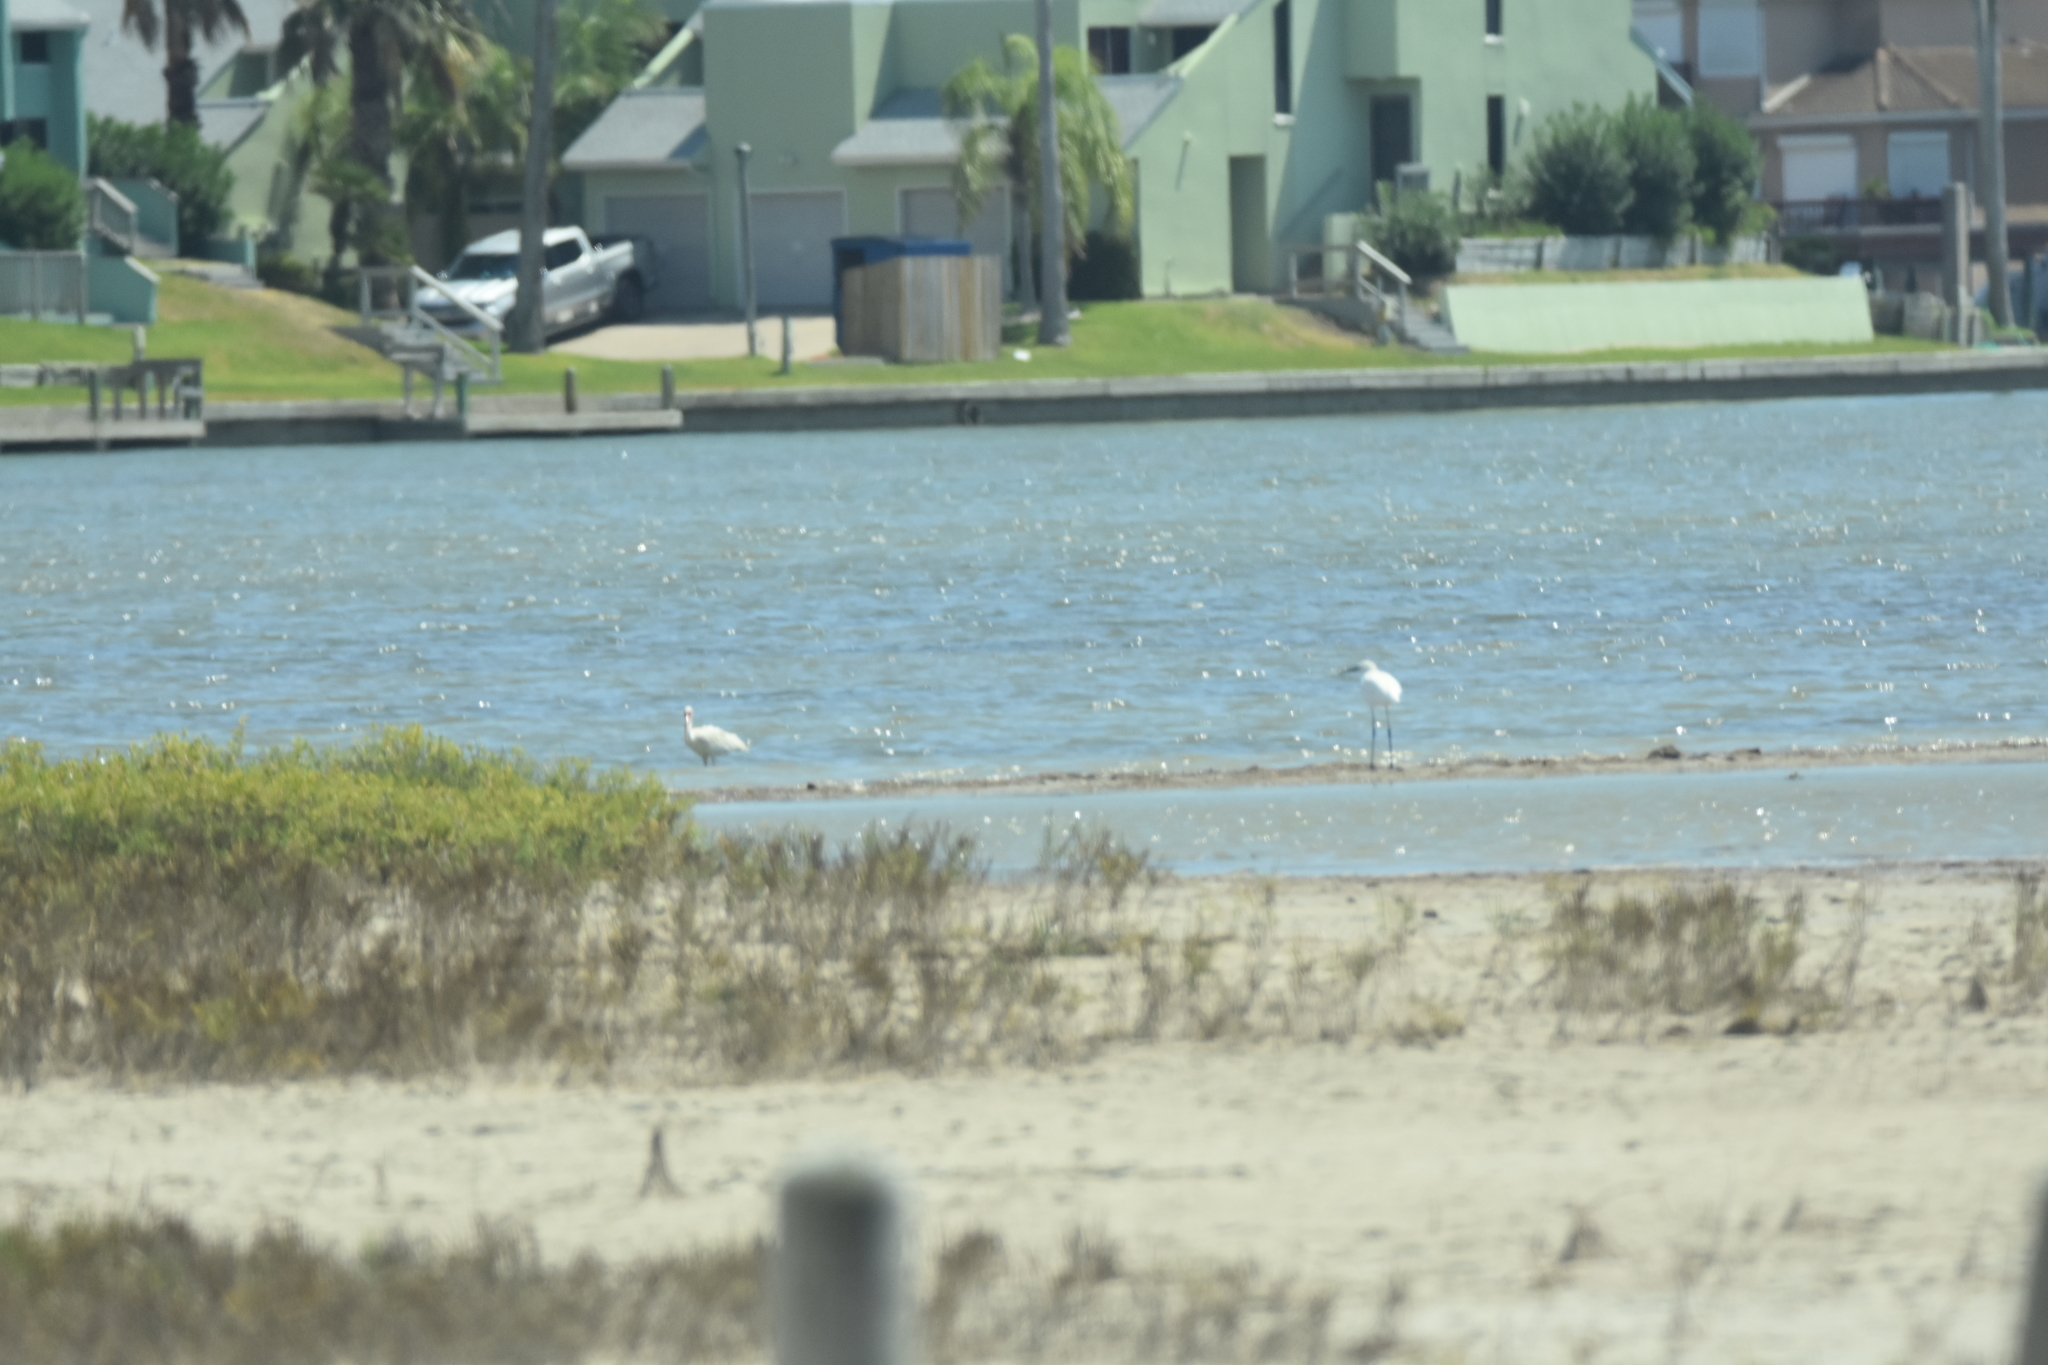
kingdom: Animalia
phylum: Chordata
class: Aves
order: Pelecaniformes
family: Ardeidae
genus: Egretta
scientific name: Egretta thula
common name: Snowy egret
